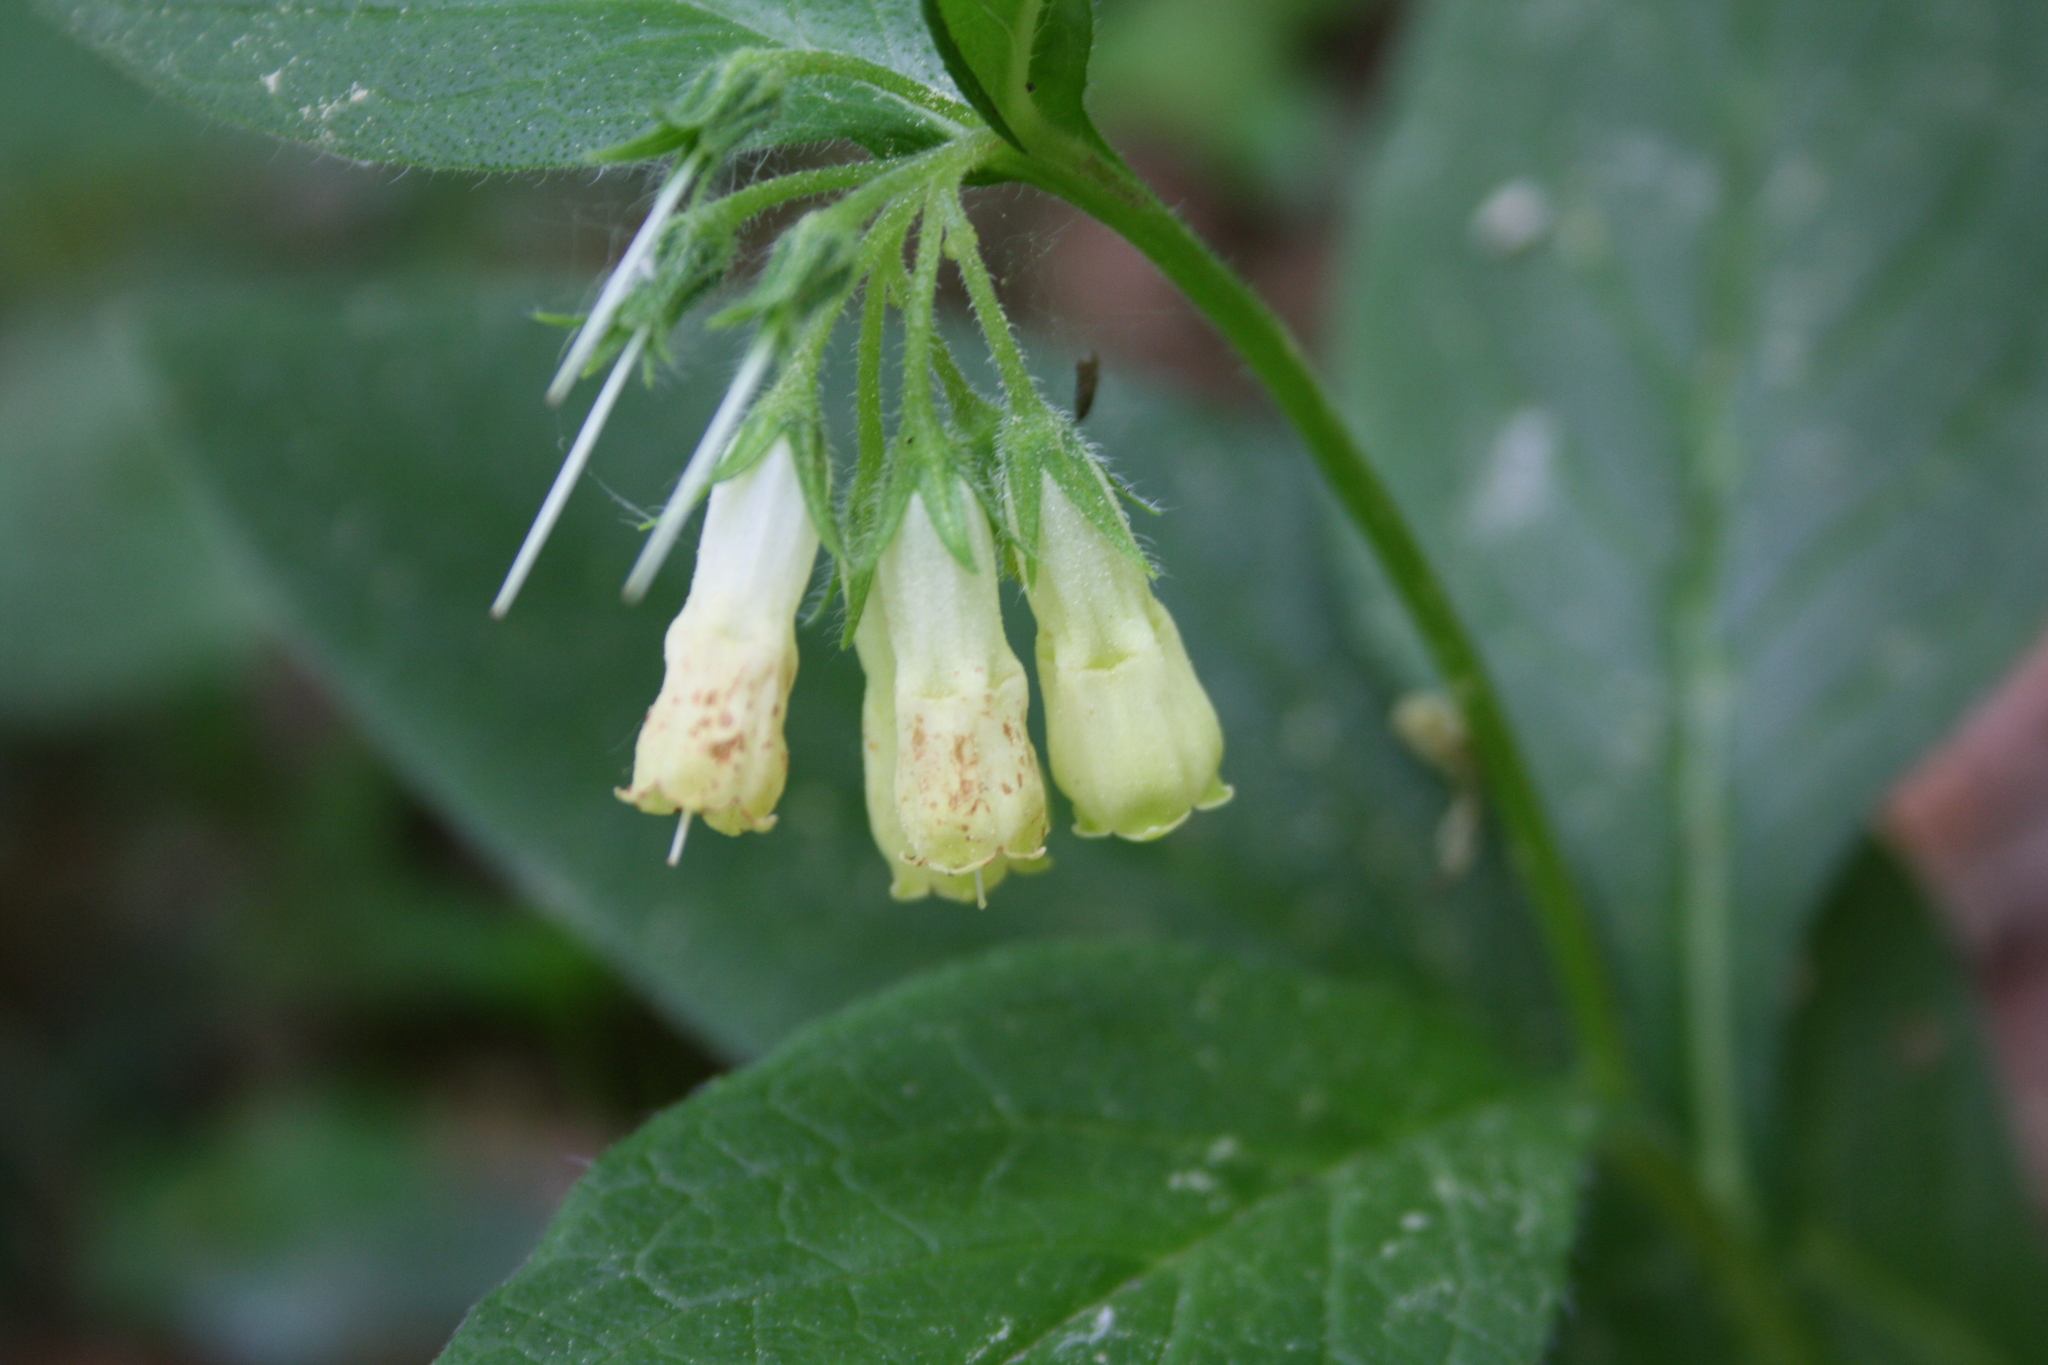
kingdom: Plantae
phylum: Tracheophyta
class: Magnoliopsida
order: Boraginales
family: Boraginaceae
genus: Symphytum
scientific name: Symphytum tuberosum
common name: Tuberous comfrey
